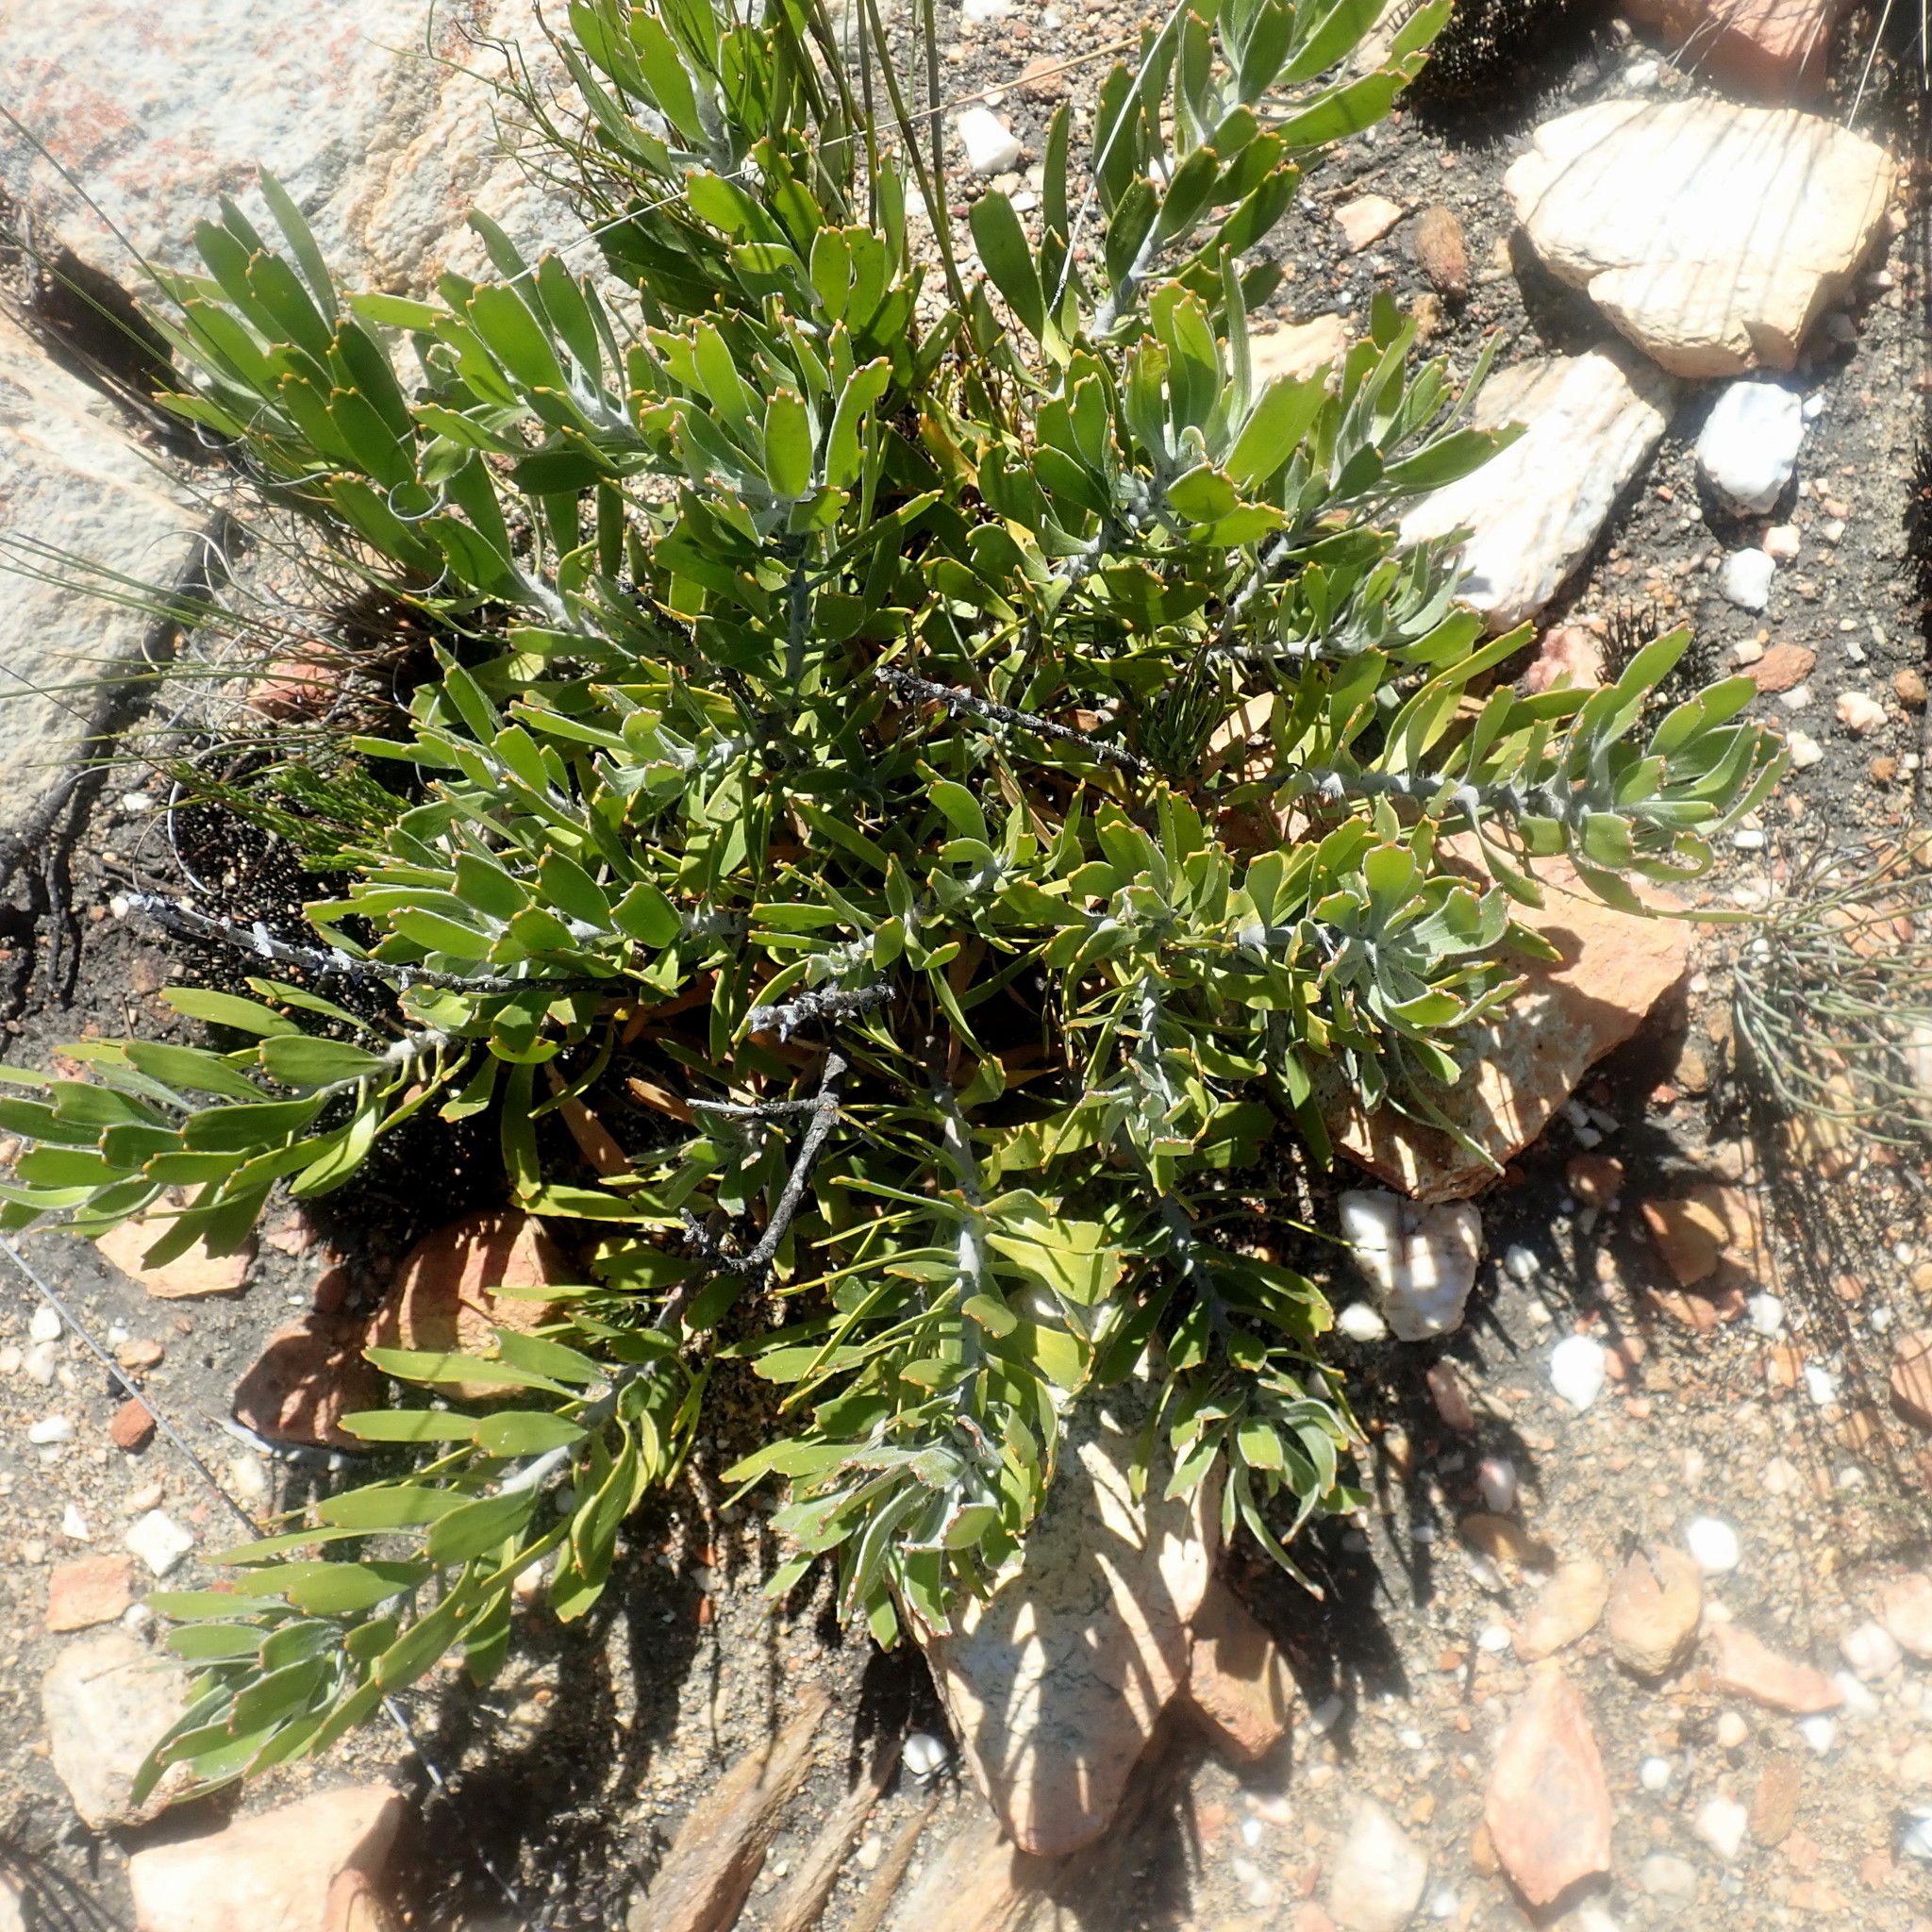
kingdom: Plantae
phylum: Tracheophyta
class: Magnoliopsida
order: Proteales
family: Proteaceae
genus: Leucospermum
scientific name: Leucospermum cuneiforme
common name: Common pincushion
